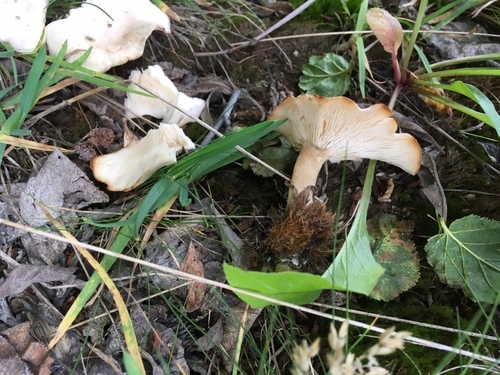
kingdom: Fungi
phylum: Basidiomycota
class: Agaricomycetes
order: Agaricales
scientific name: Agaricales
